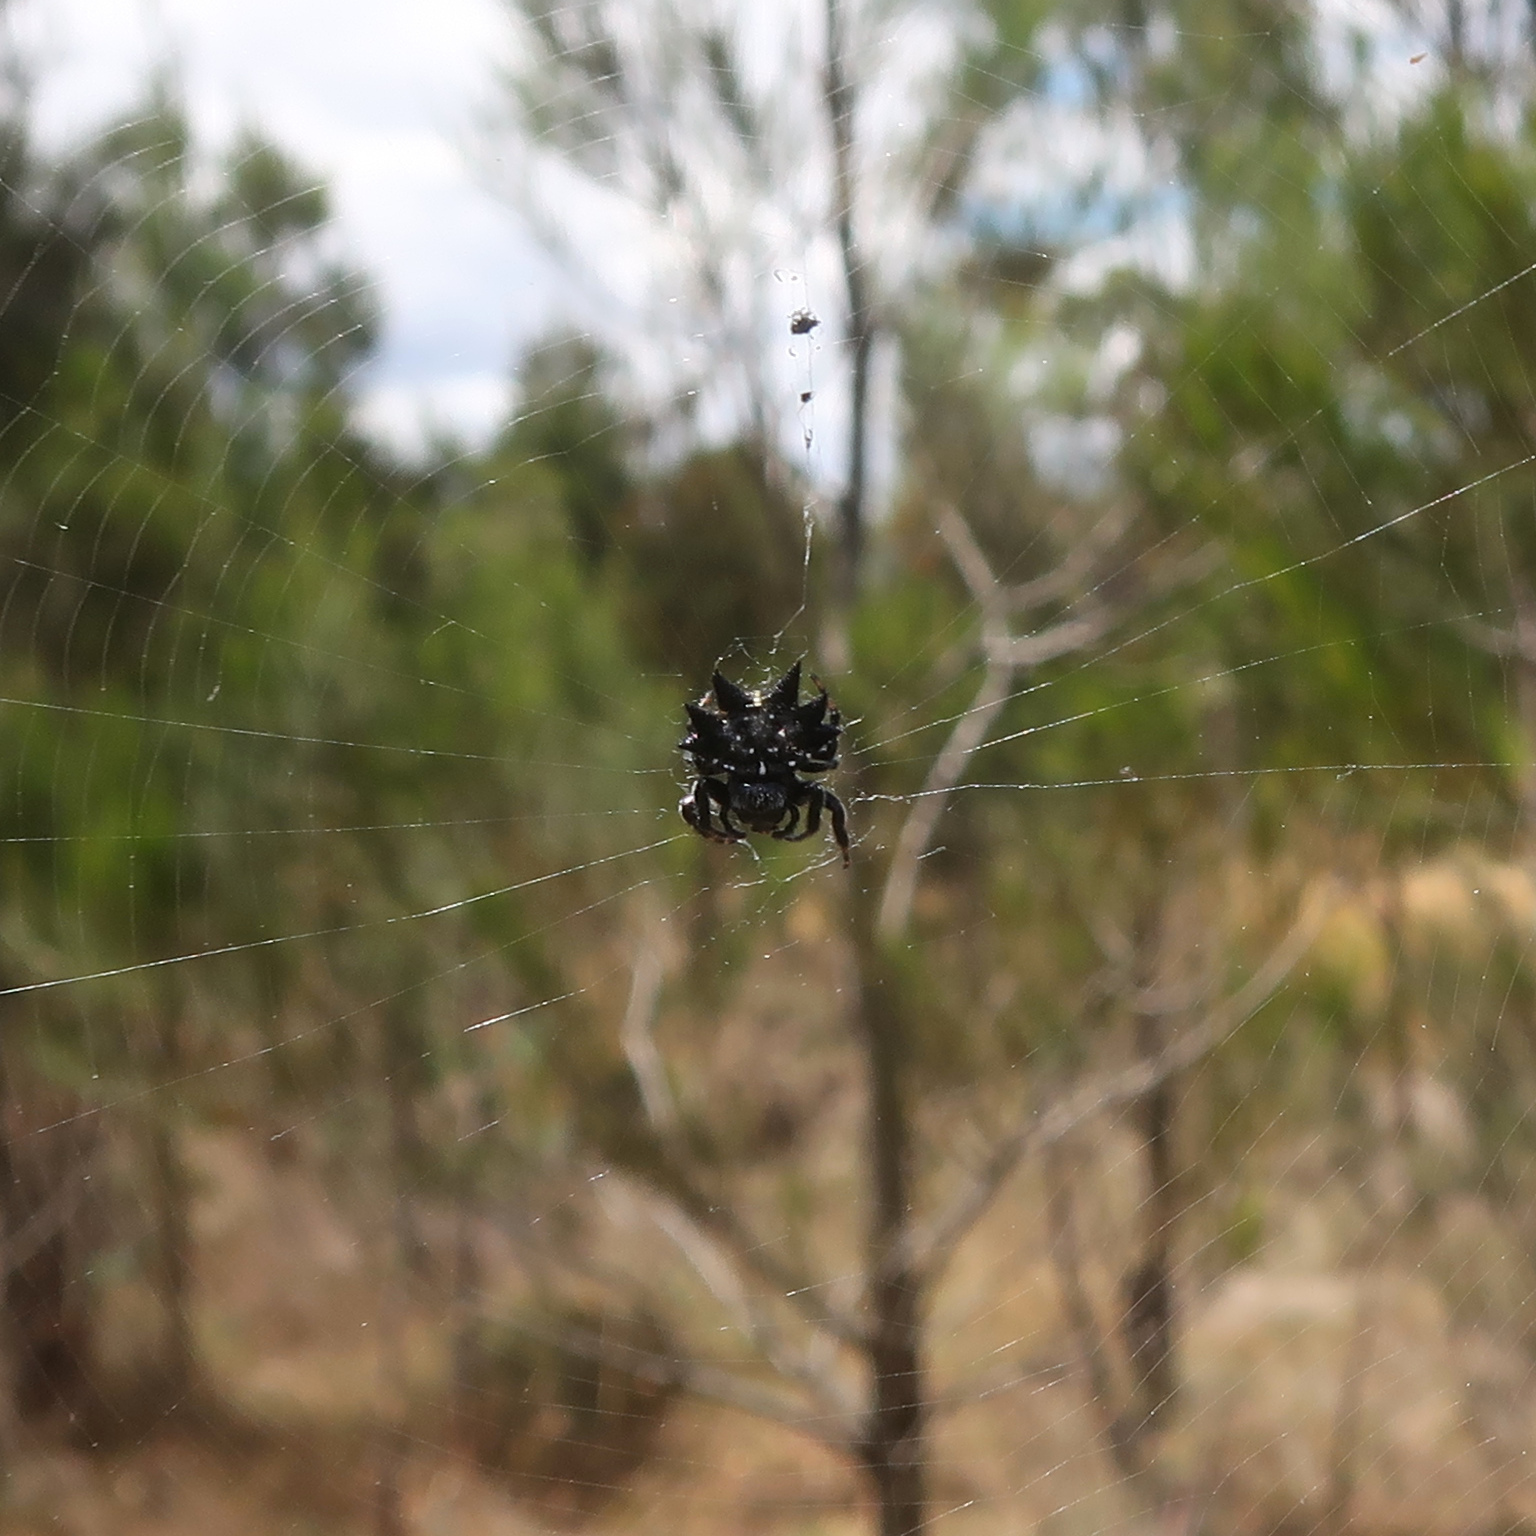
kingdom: Animalia
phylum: Arthropoda
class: Arachnida
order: Araneae
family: Araneidae
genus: Austracantha
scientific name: Austracantha minax
